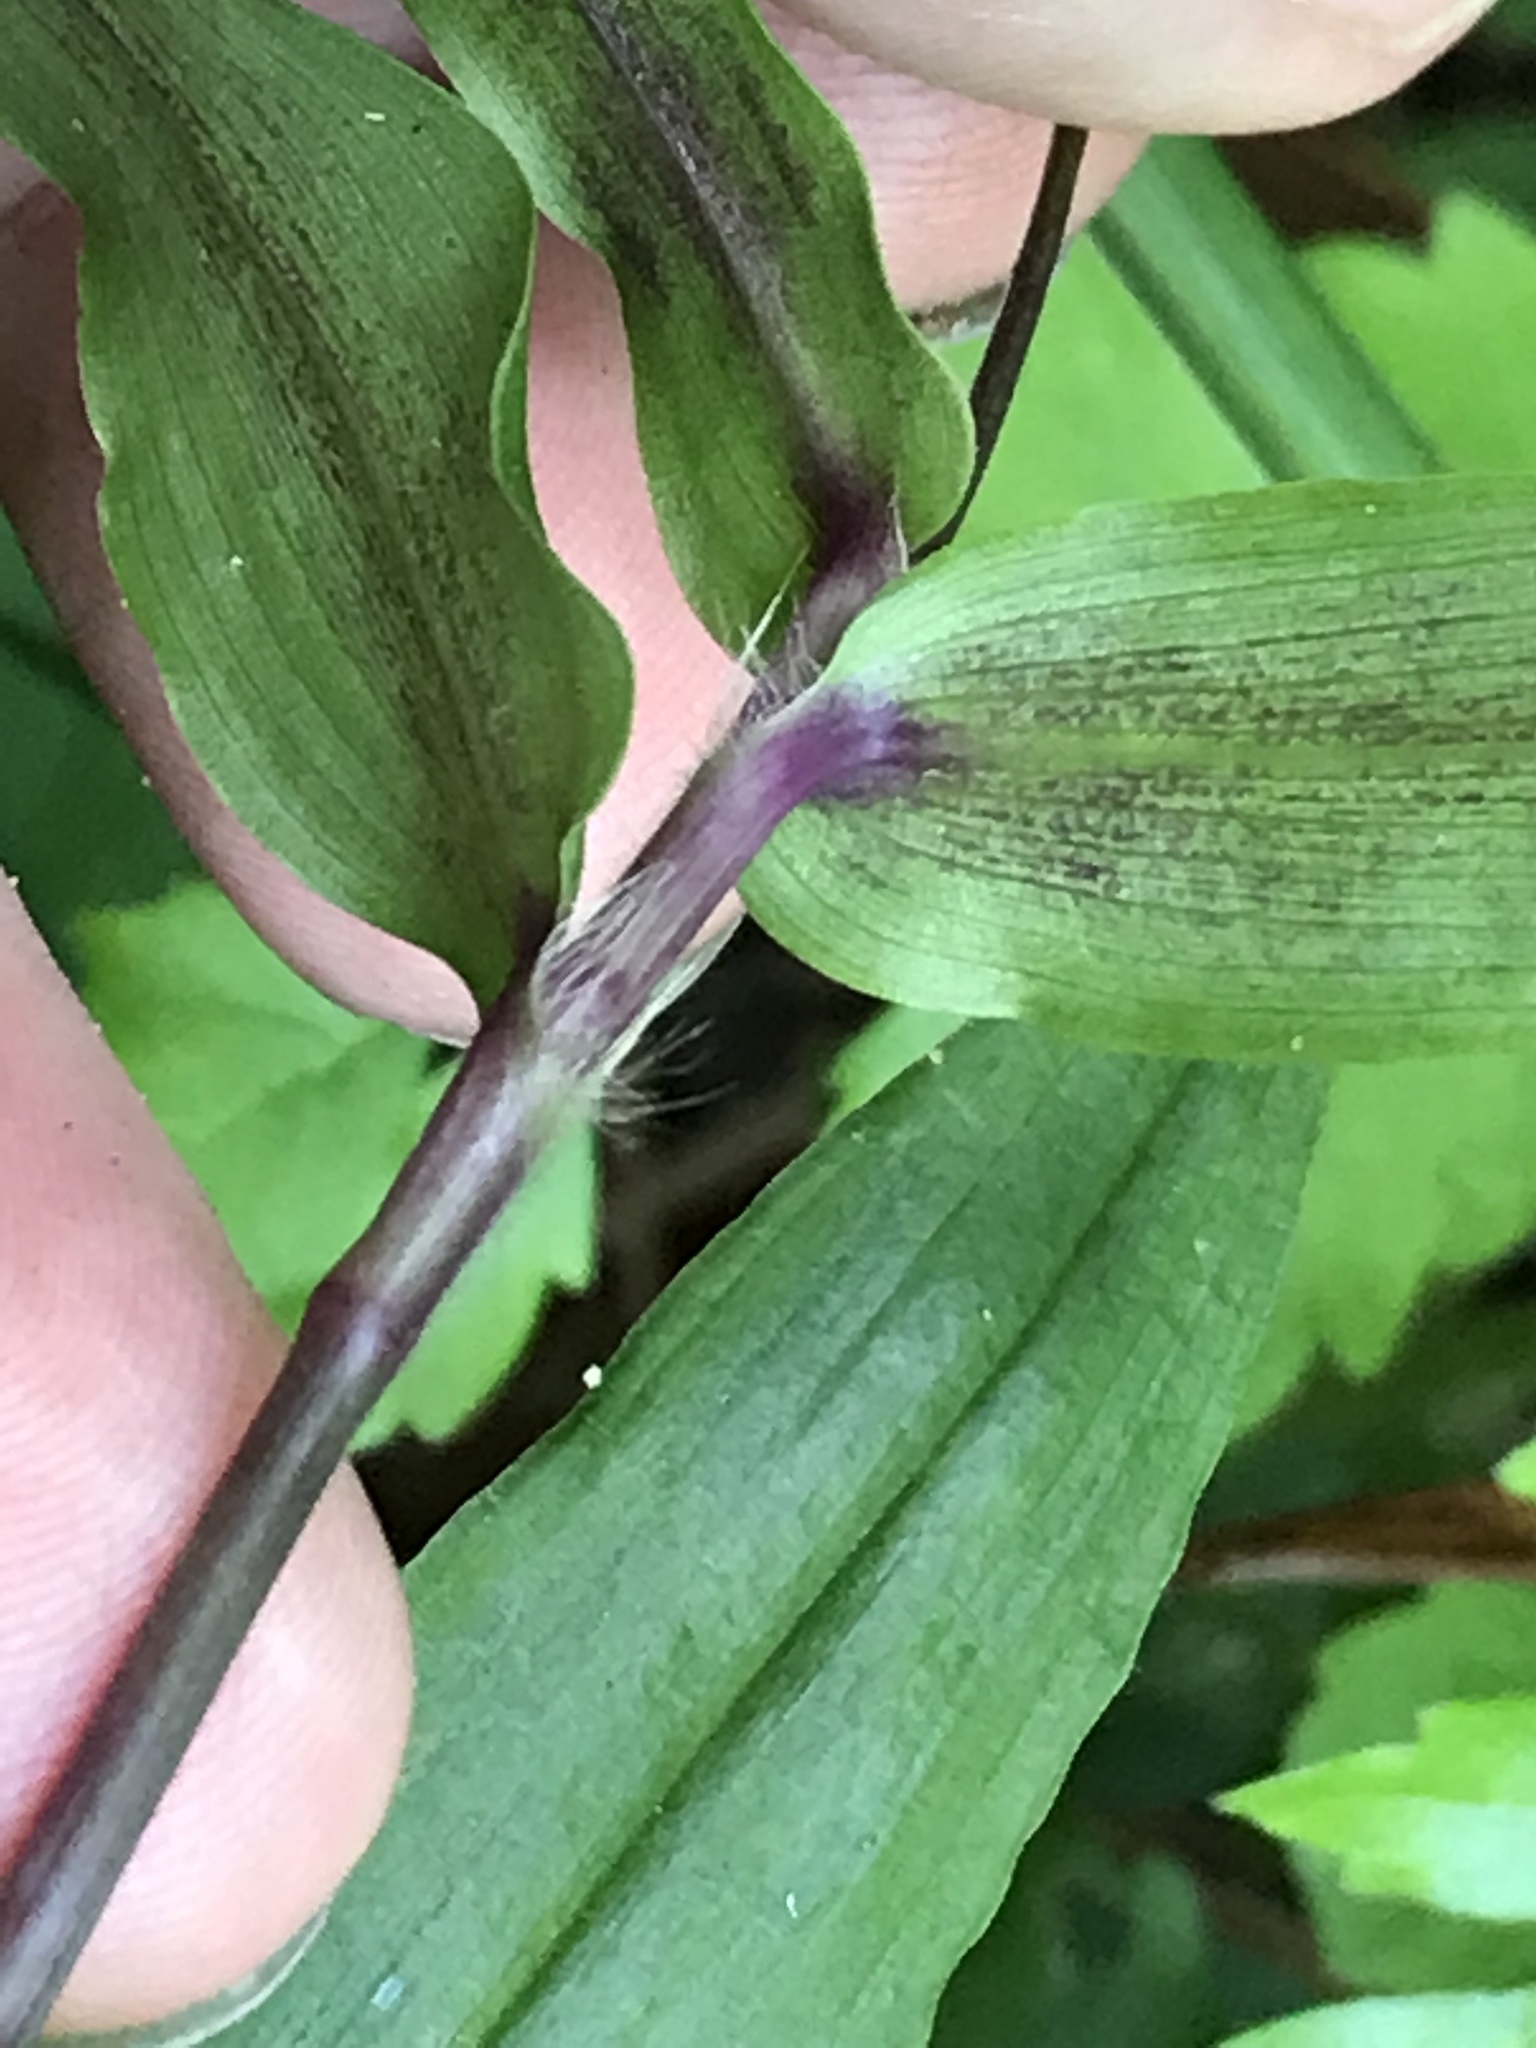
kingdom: Plantae
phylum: Tracheophyta
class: Liliopsida
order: Commelinales
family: Commelinaceae
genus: Gibasis
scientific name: Gibasis pellucida
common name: Dotted bridalveil
